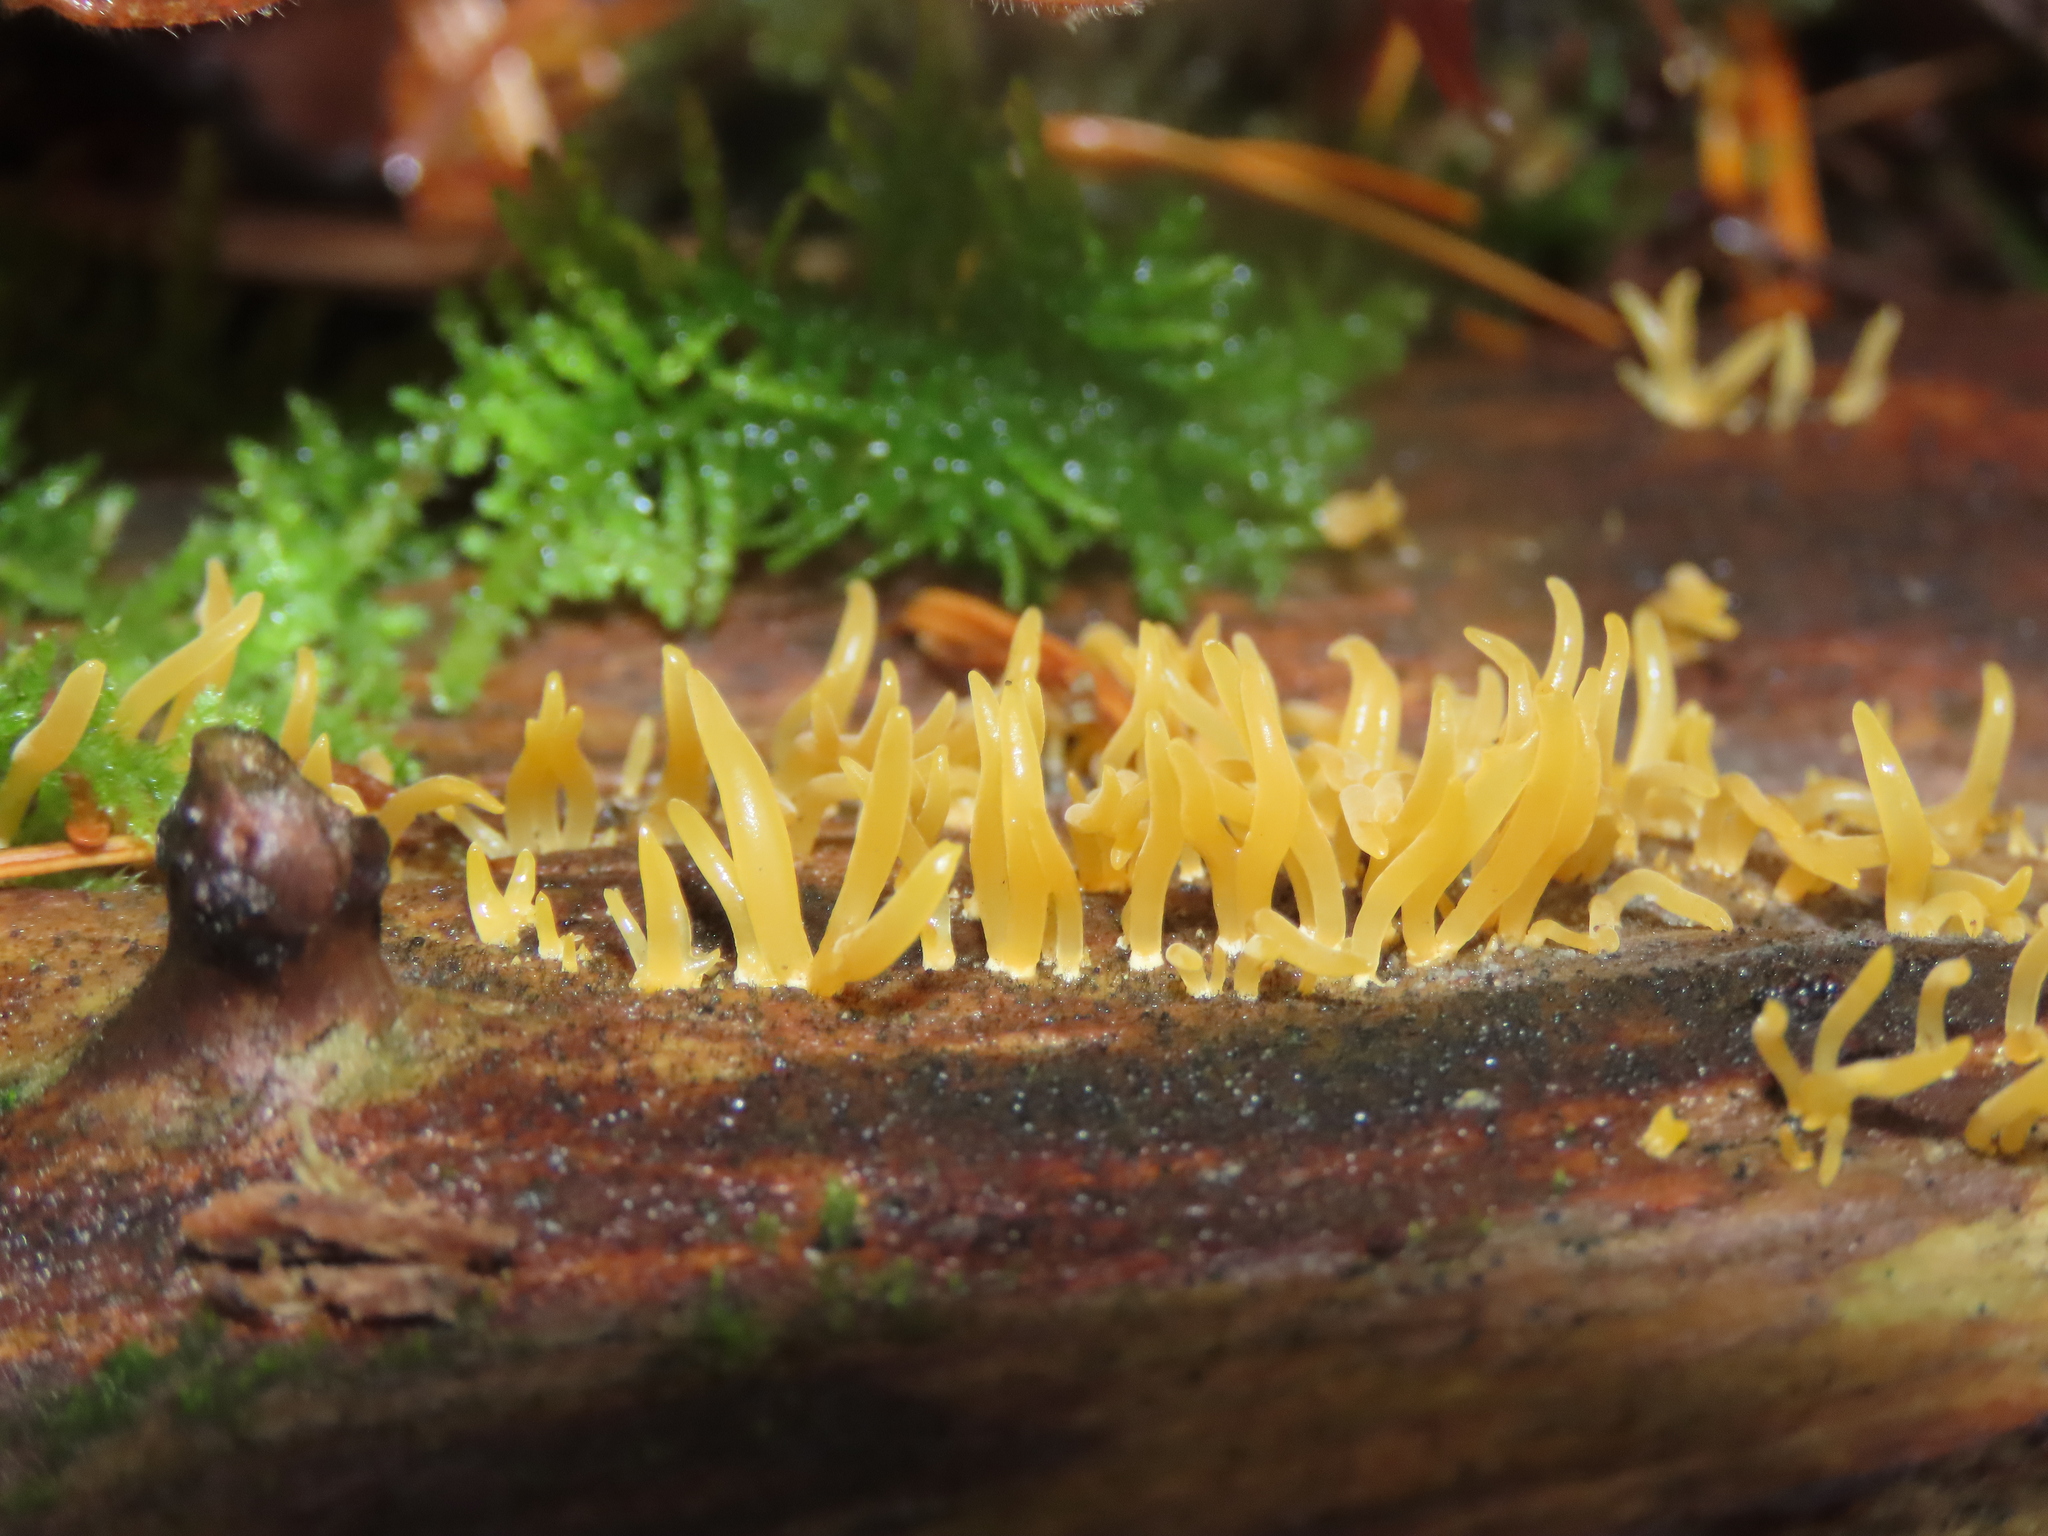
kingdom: Fungi
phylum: Basidiomycota
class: Dacrymycetes
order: Dacrymycetales
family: Dacrymycetaceae
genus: Calocera
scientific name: Calocera cornea
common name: Small stagshorn
